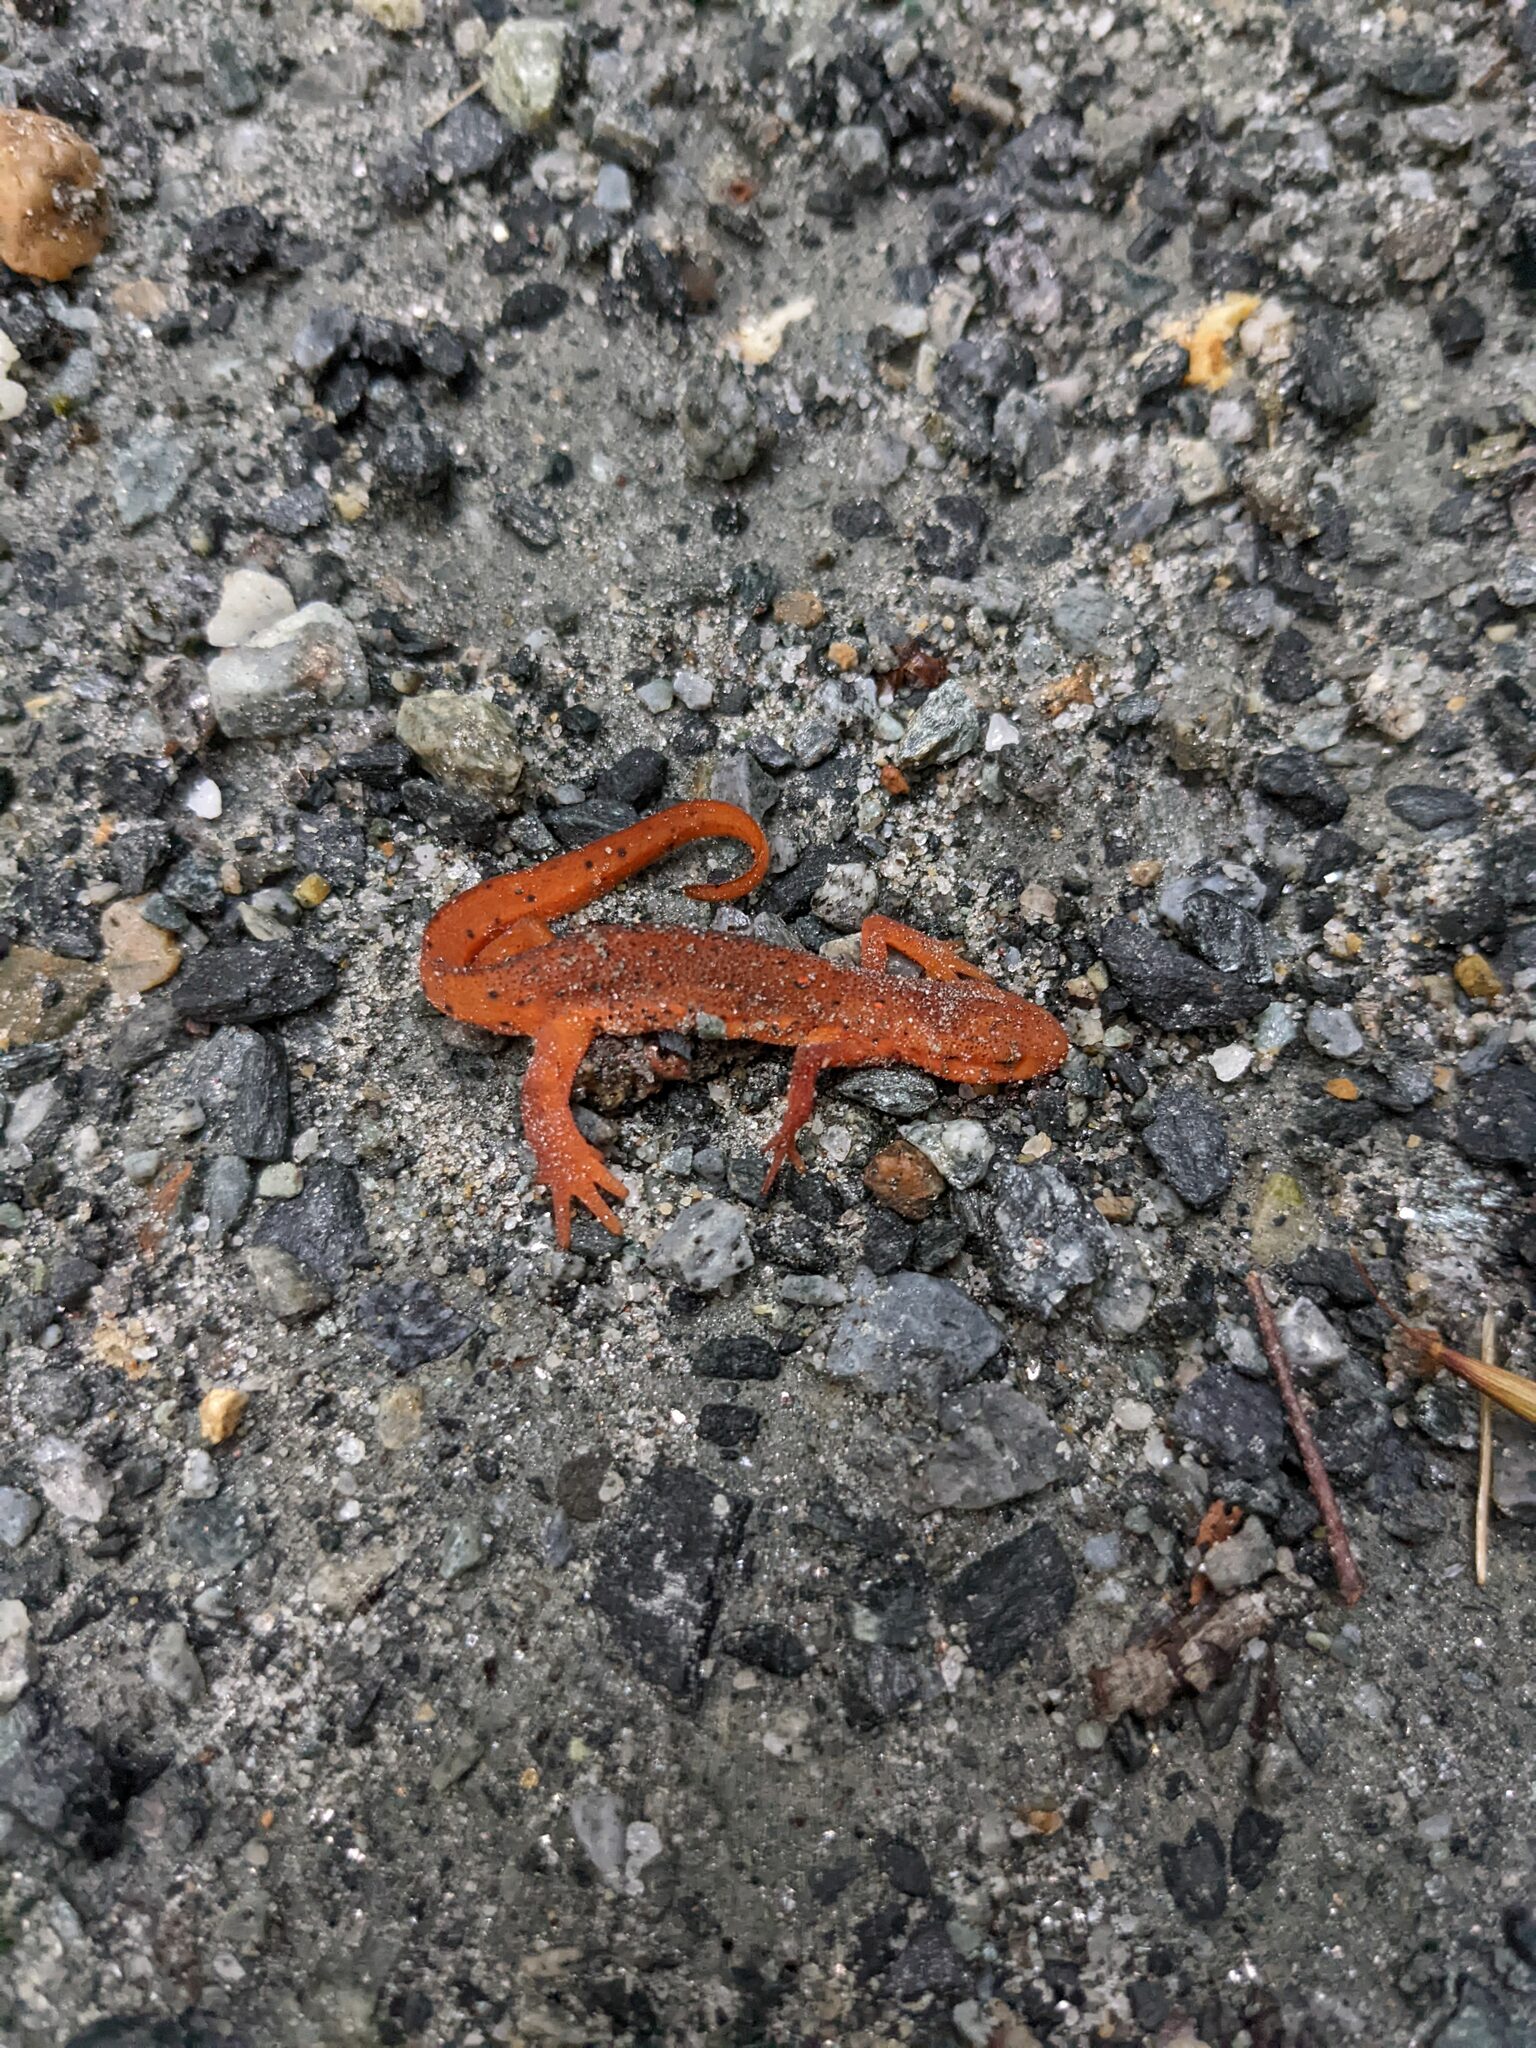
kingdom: Animalia
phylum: Chordata
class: Amphibia
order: Caudata
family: Salamandridae
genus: Notophthalmus
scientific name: Notophthalmus viridescens
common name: Eastern newt
